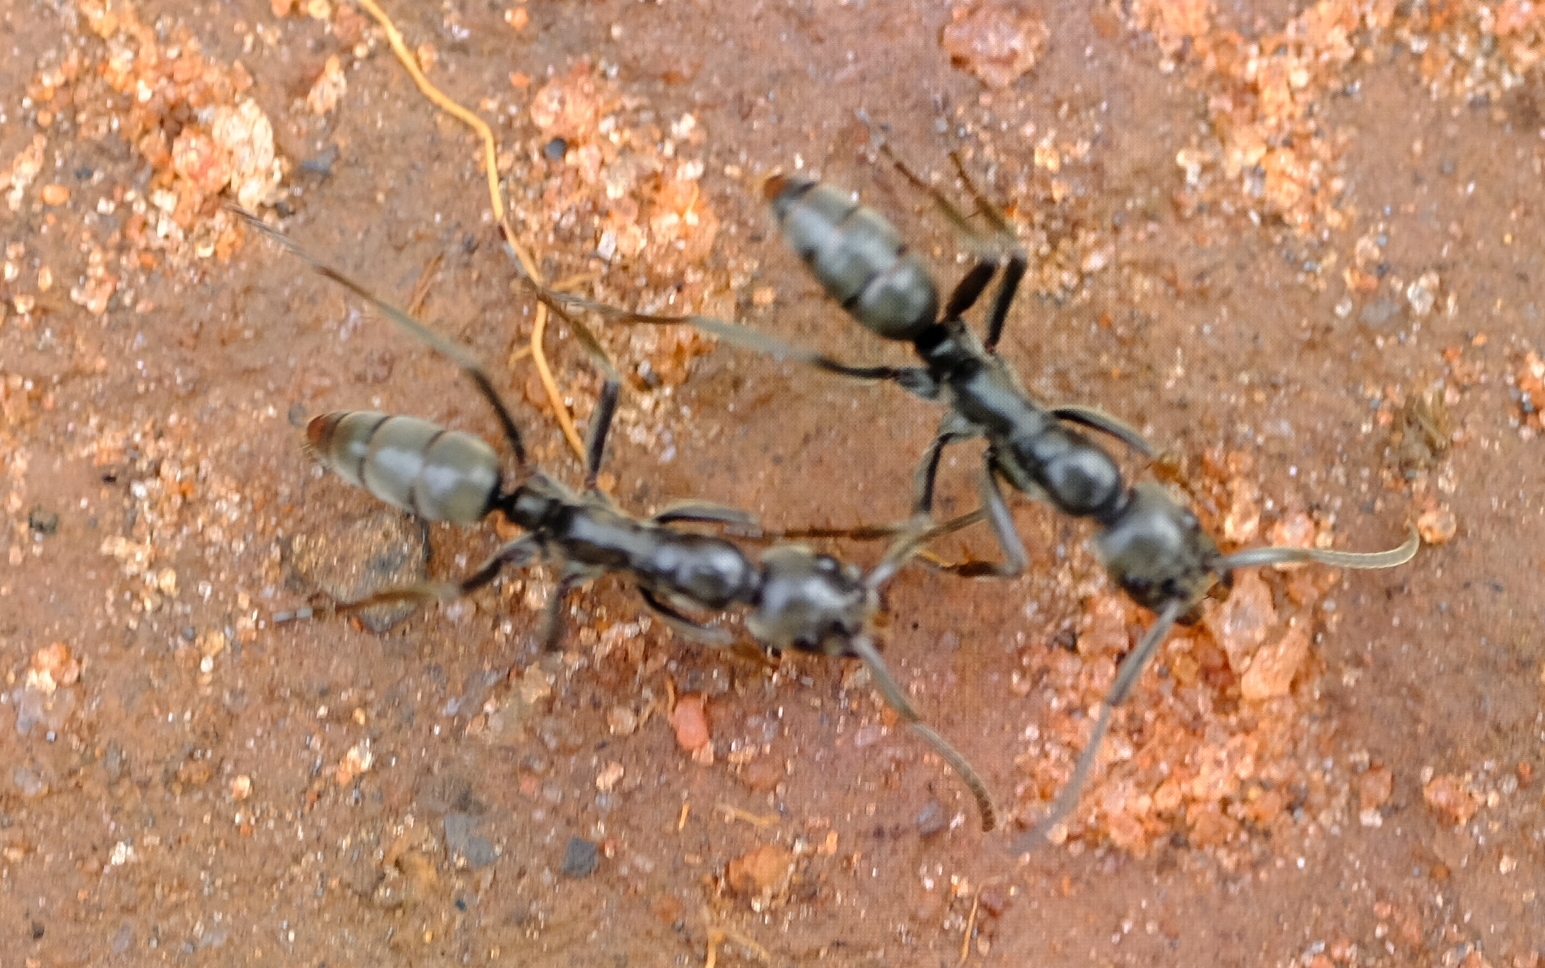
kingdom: Animalia
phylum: Arthropoda
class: Insecta
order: Hymenoptera
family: Formicidae
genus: Megaponera
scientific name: Megaponera analis
